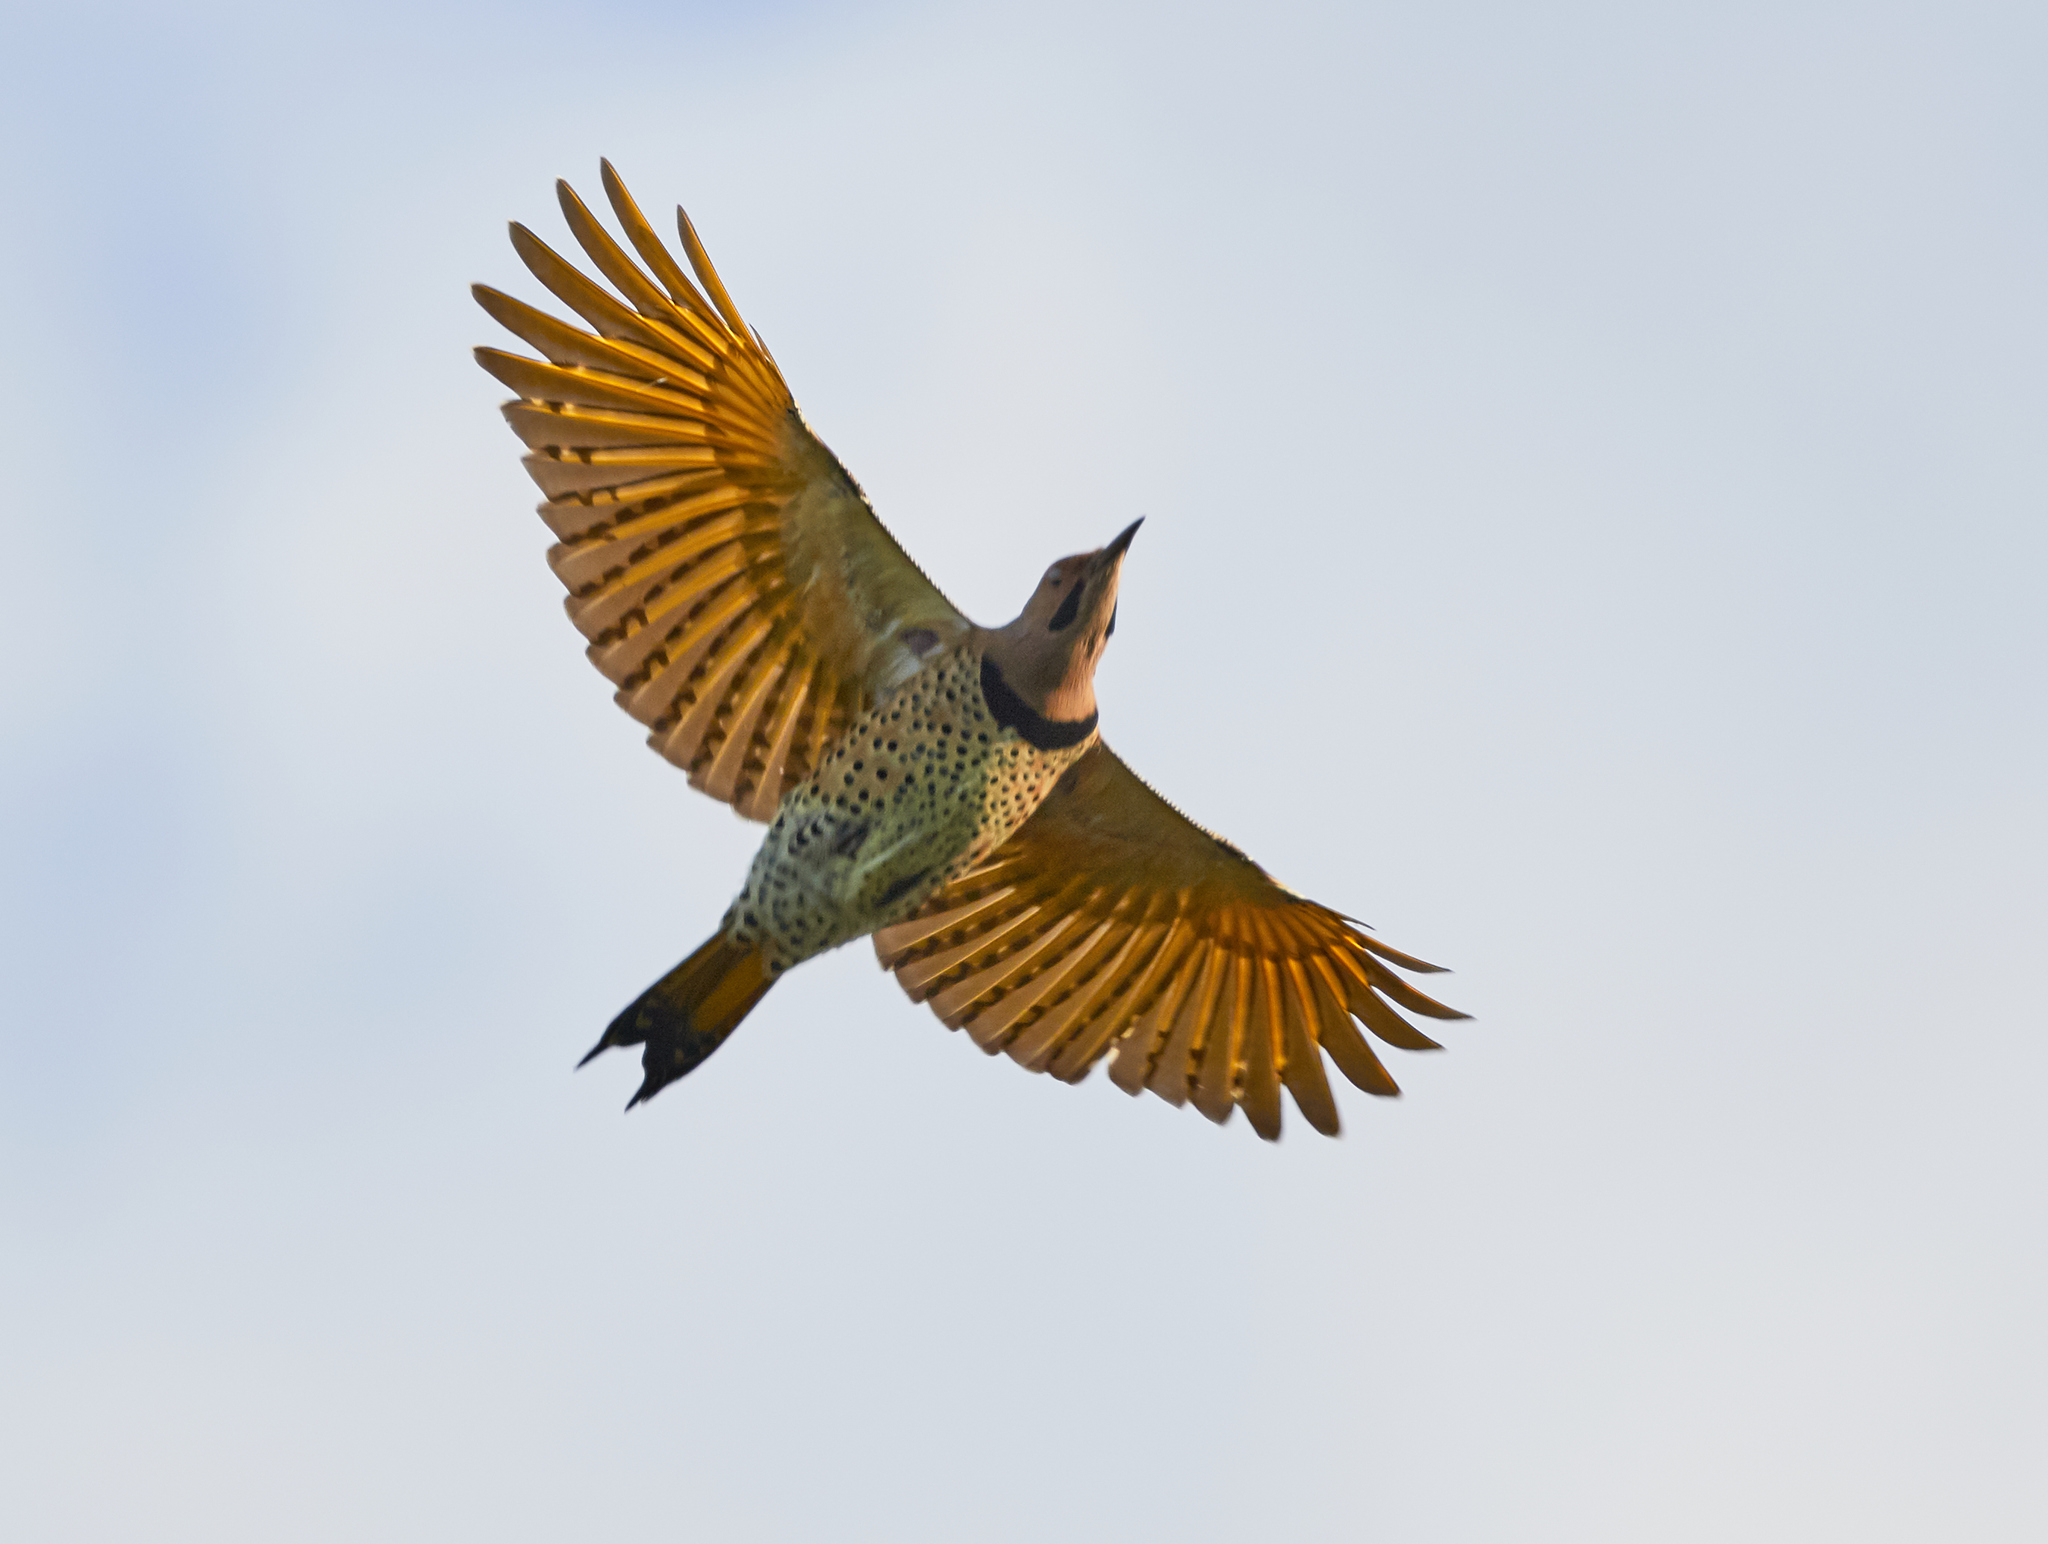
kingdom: Animalia
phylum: Chordata
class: Aves
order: Piciformes
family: Picidae
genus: Colaptes
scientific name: Colaptes auratus
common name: Northern flicker
